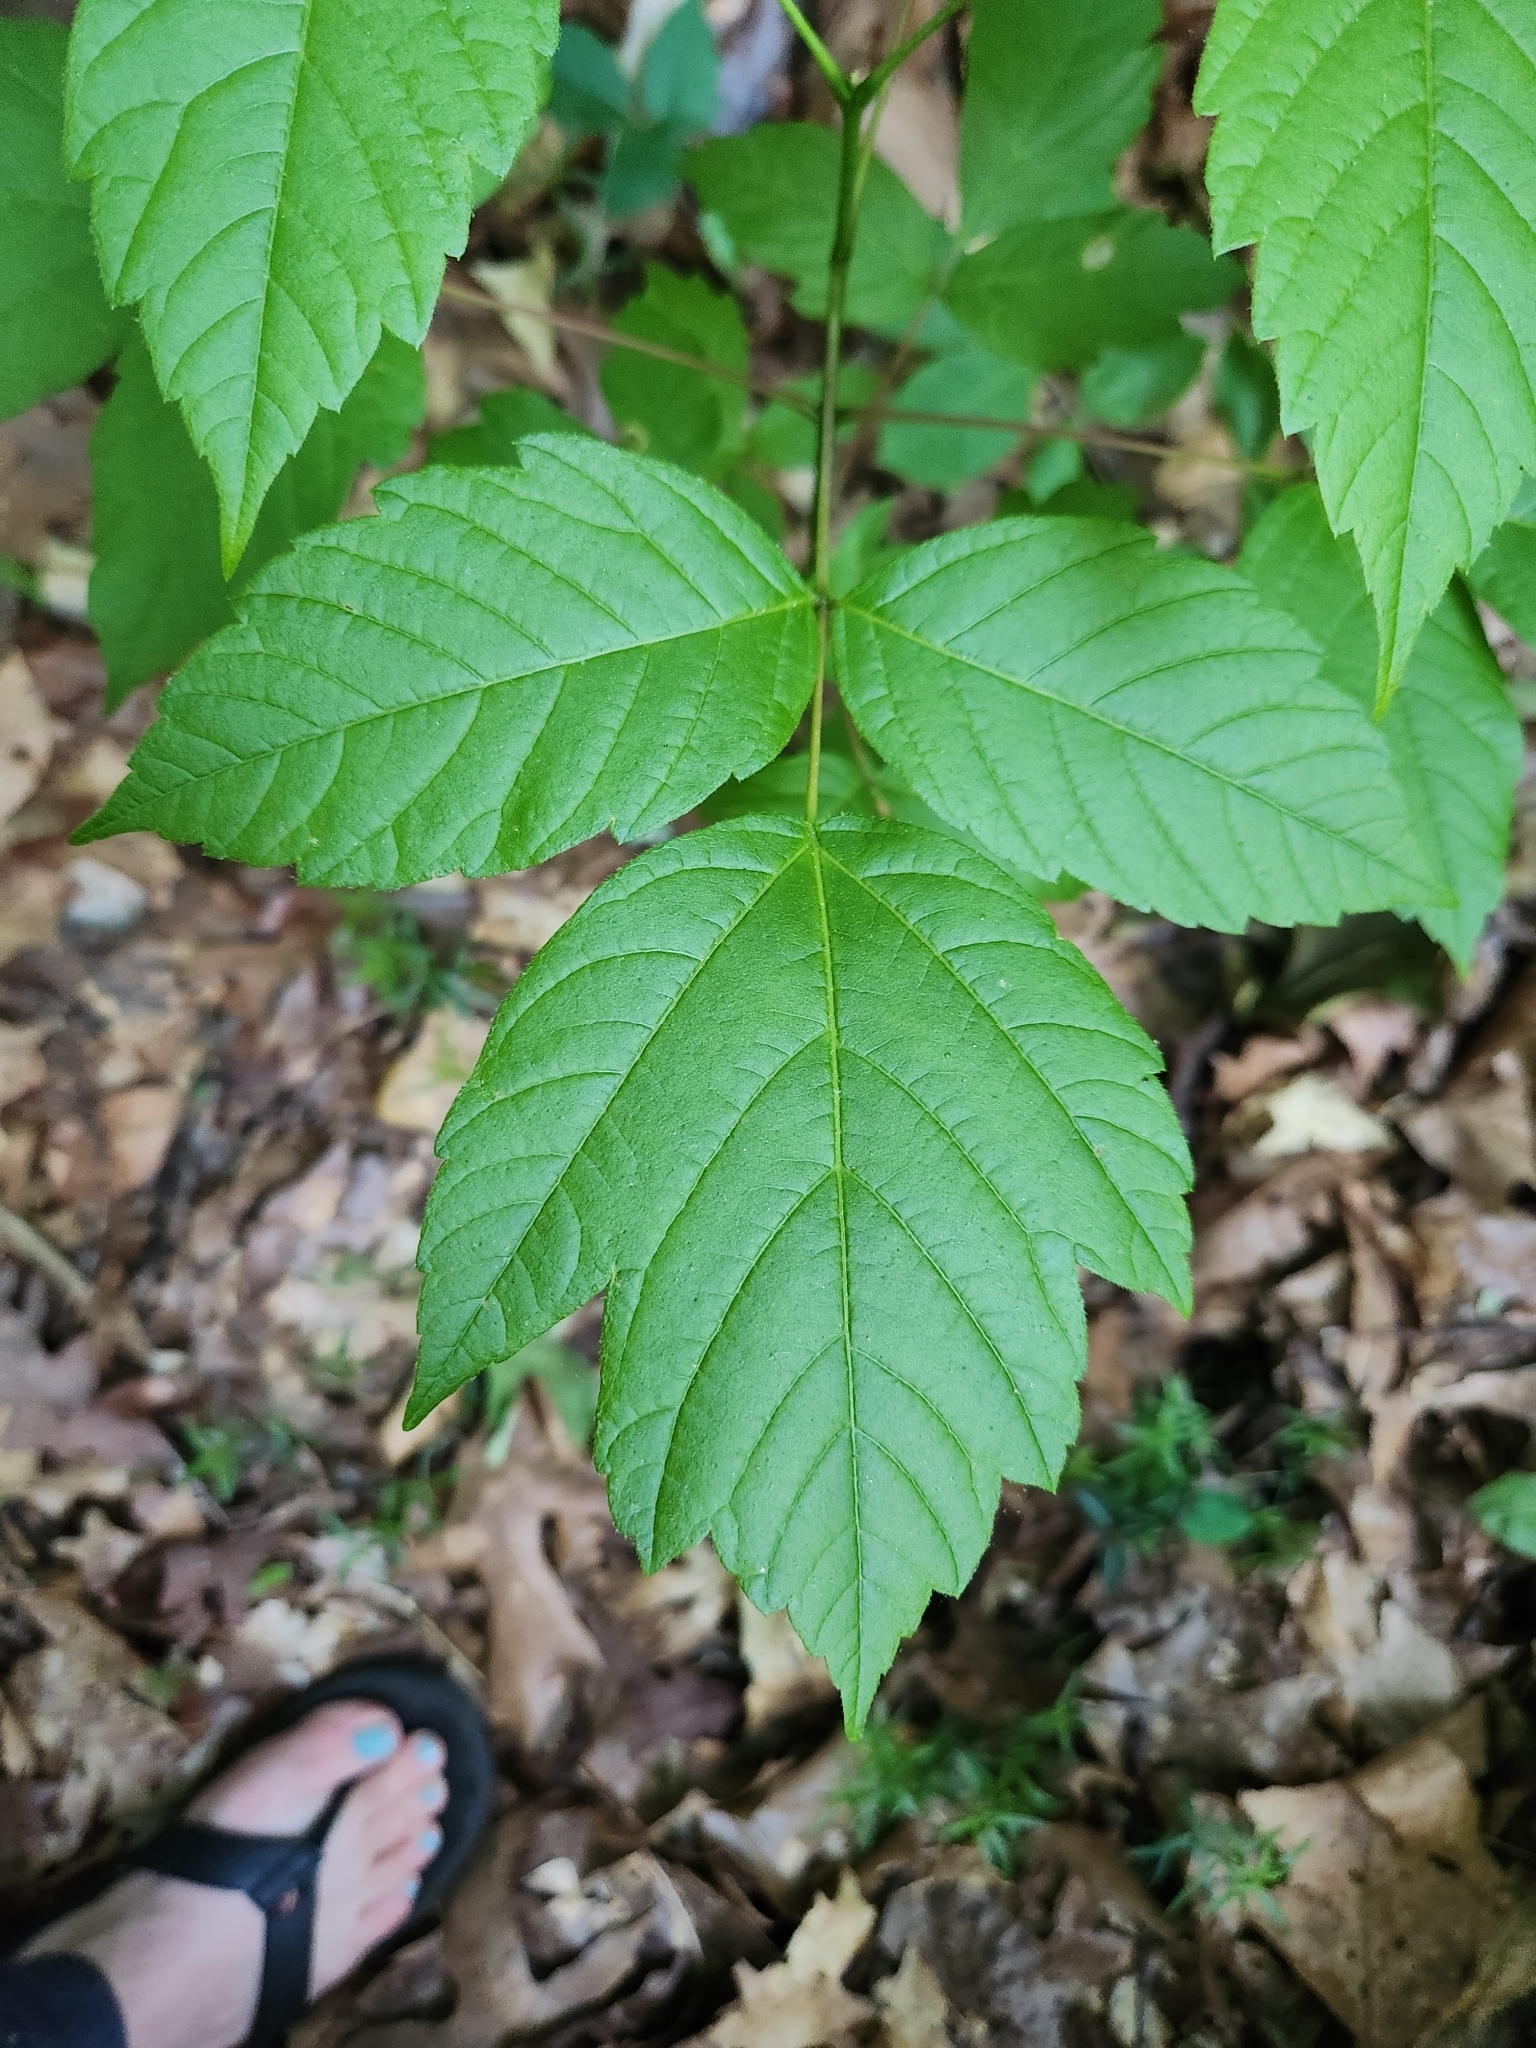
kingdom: Plantae
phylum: Tracheophyta
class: Magnoliopsida
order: Sapindales
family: Sapindaceae
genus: Acer
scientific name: Acer negundo
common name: Ashleaf maple
